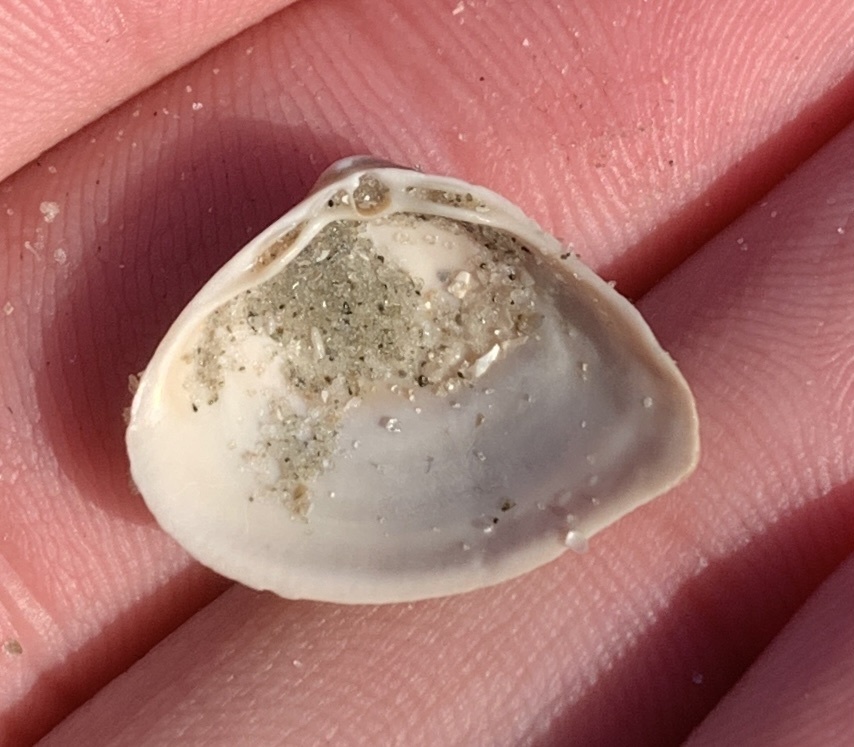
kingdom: Animalia
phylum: Mollusca
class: Bivalvia
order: Venerida
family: Mactridae
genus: Mulinia
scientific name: Mulinia lateralis
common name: Dwarf surfclam
